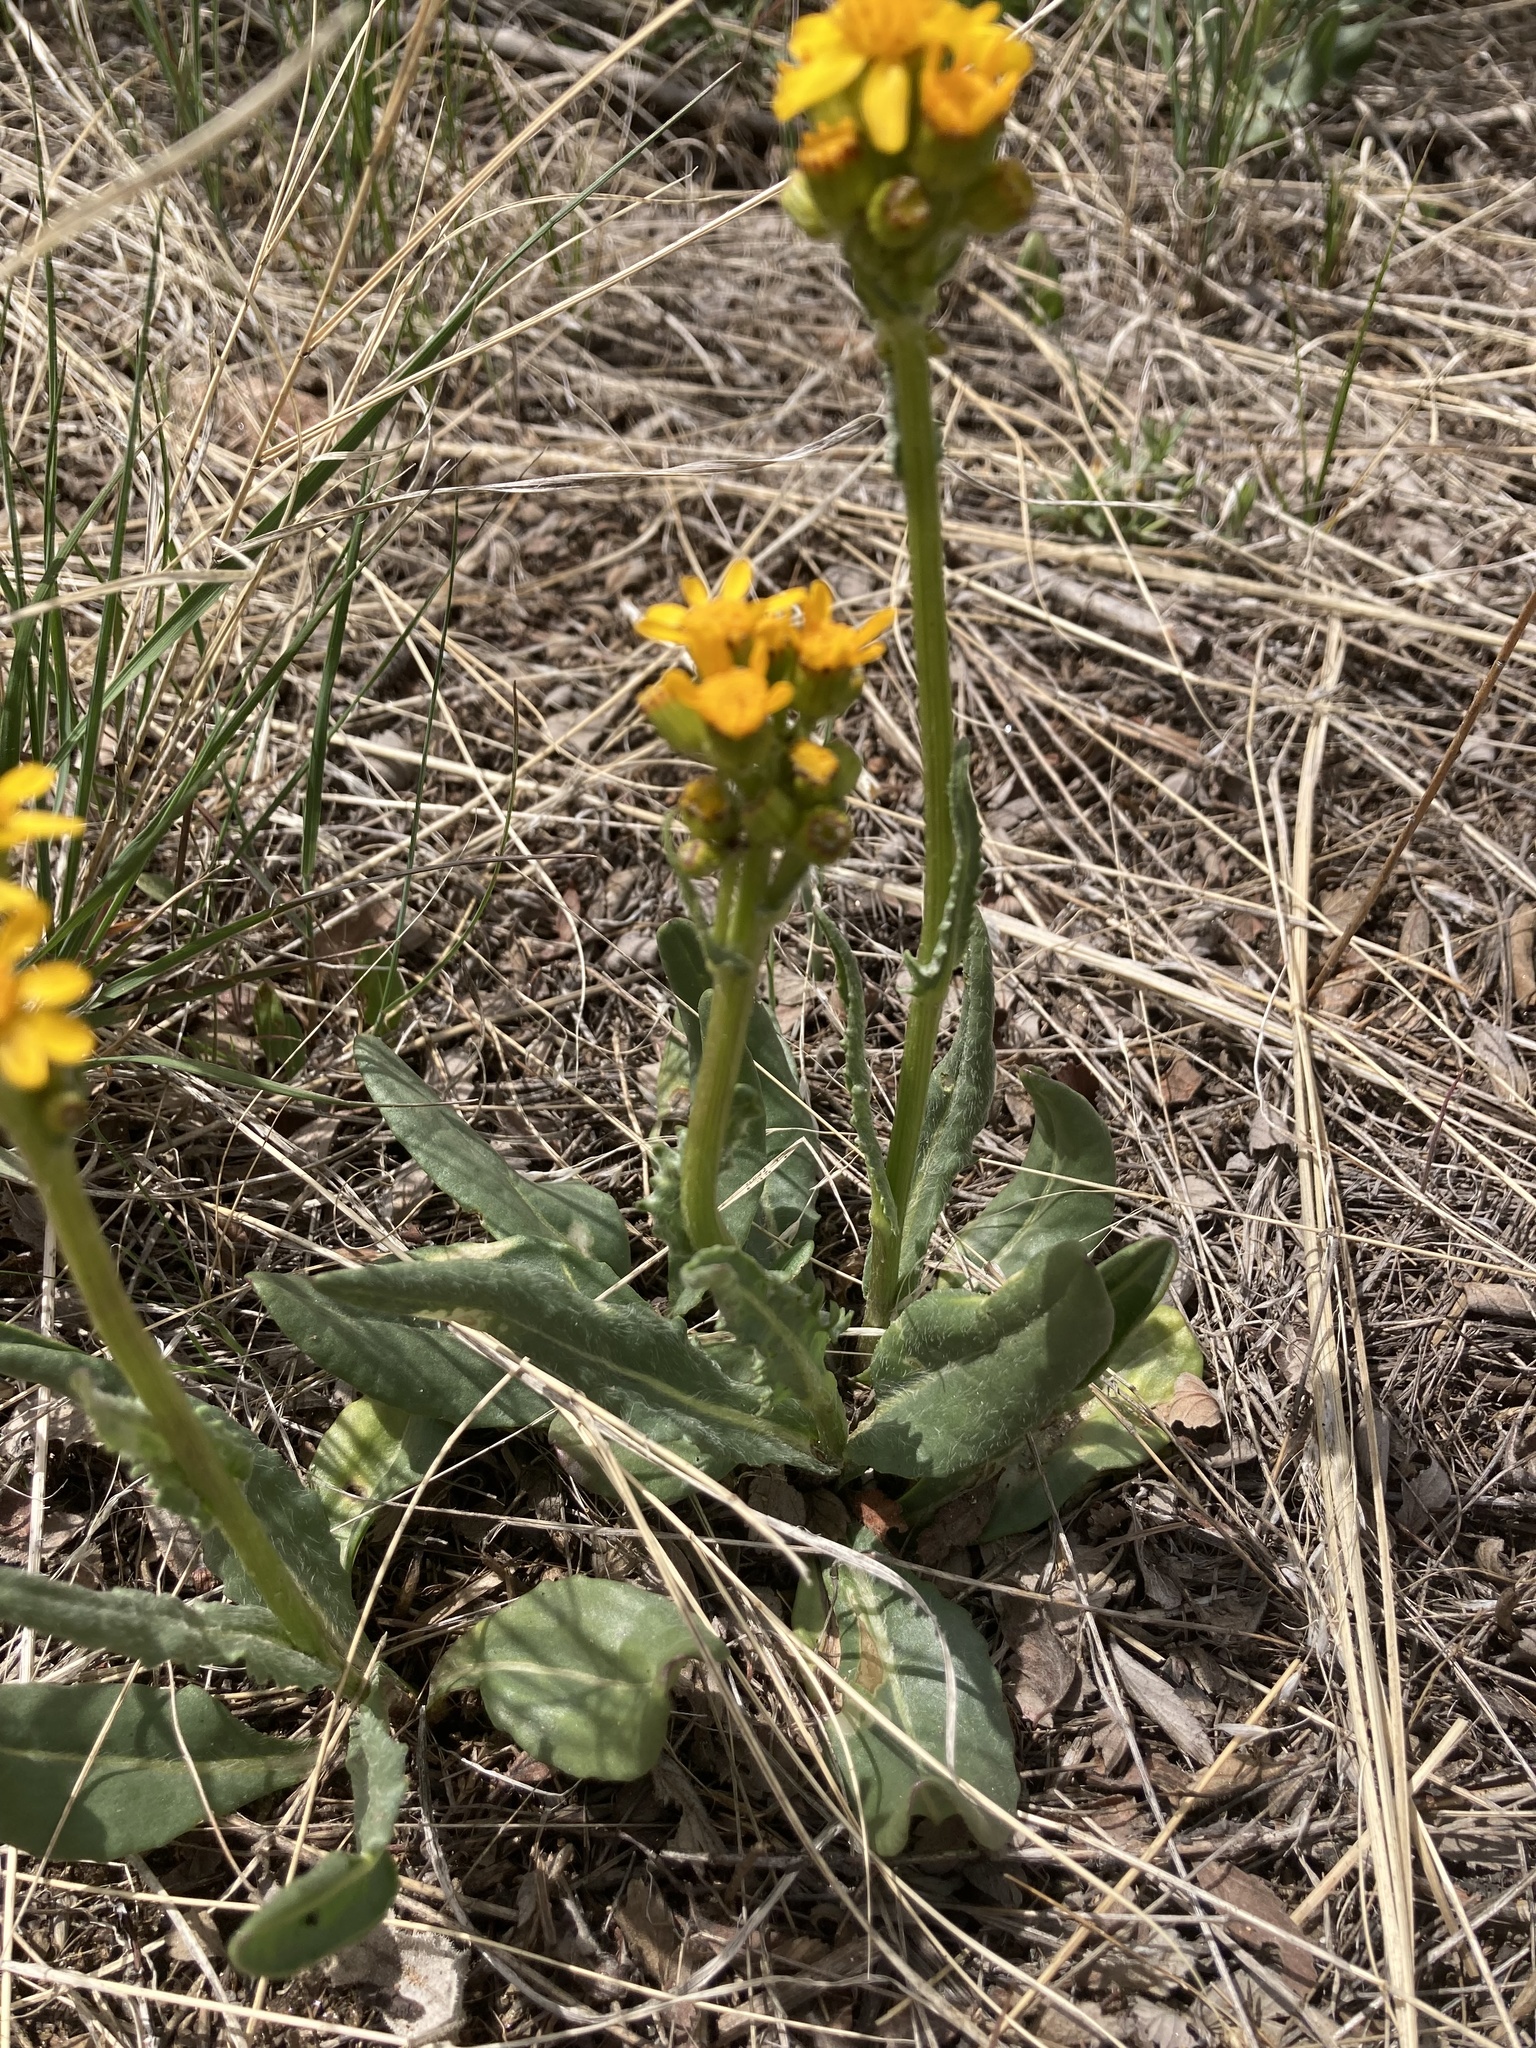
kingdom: Plantae
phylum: Tracheophyta
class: Magnoliopsida
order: Asterales
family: Asteraceae
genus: Senecio
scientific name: Senecio integerrimus
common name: Gaugeplant
